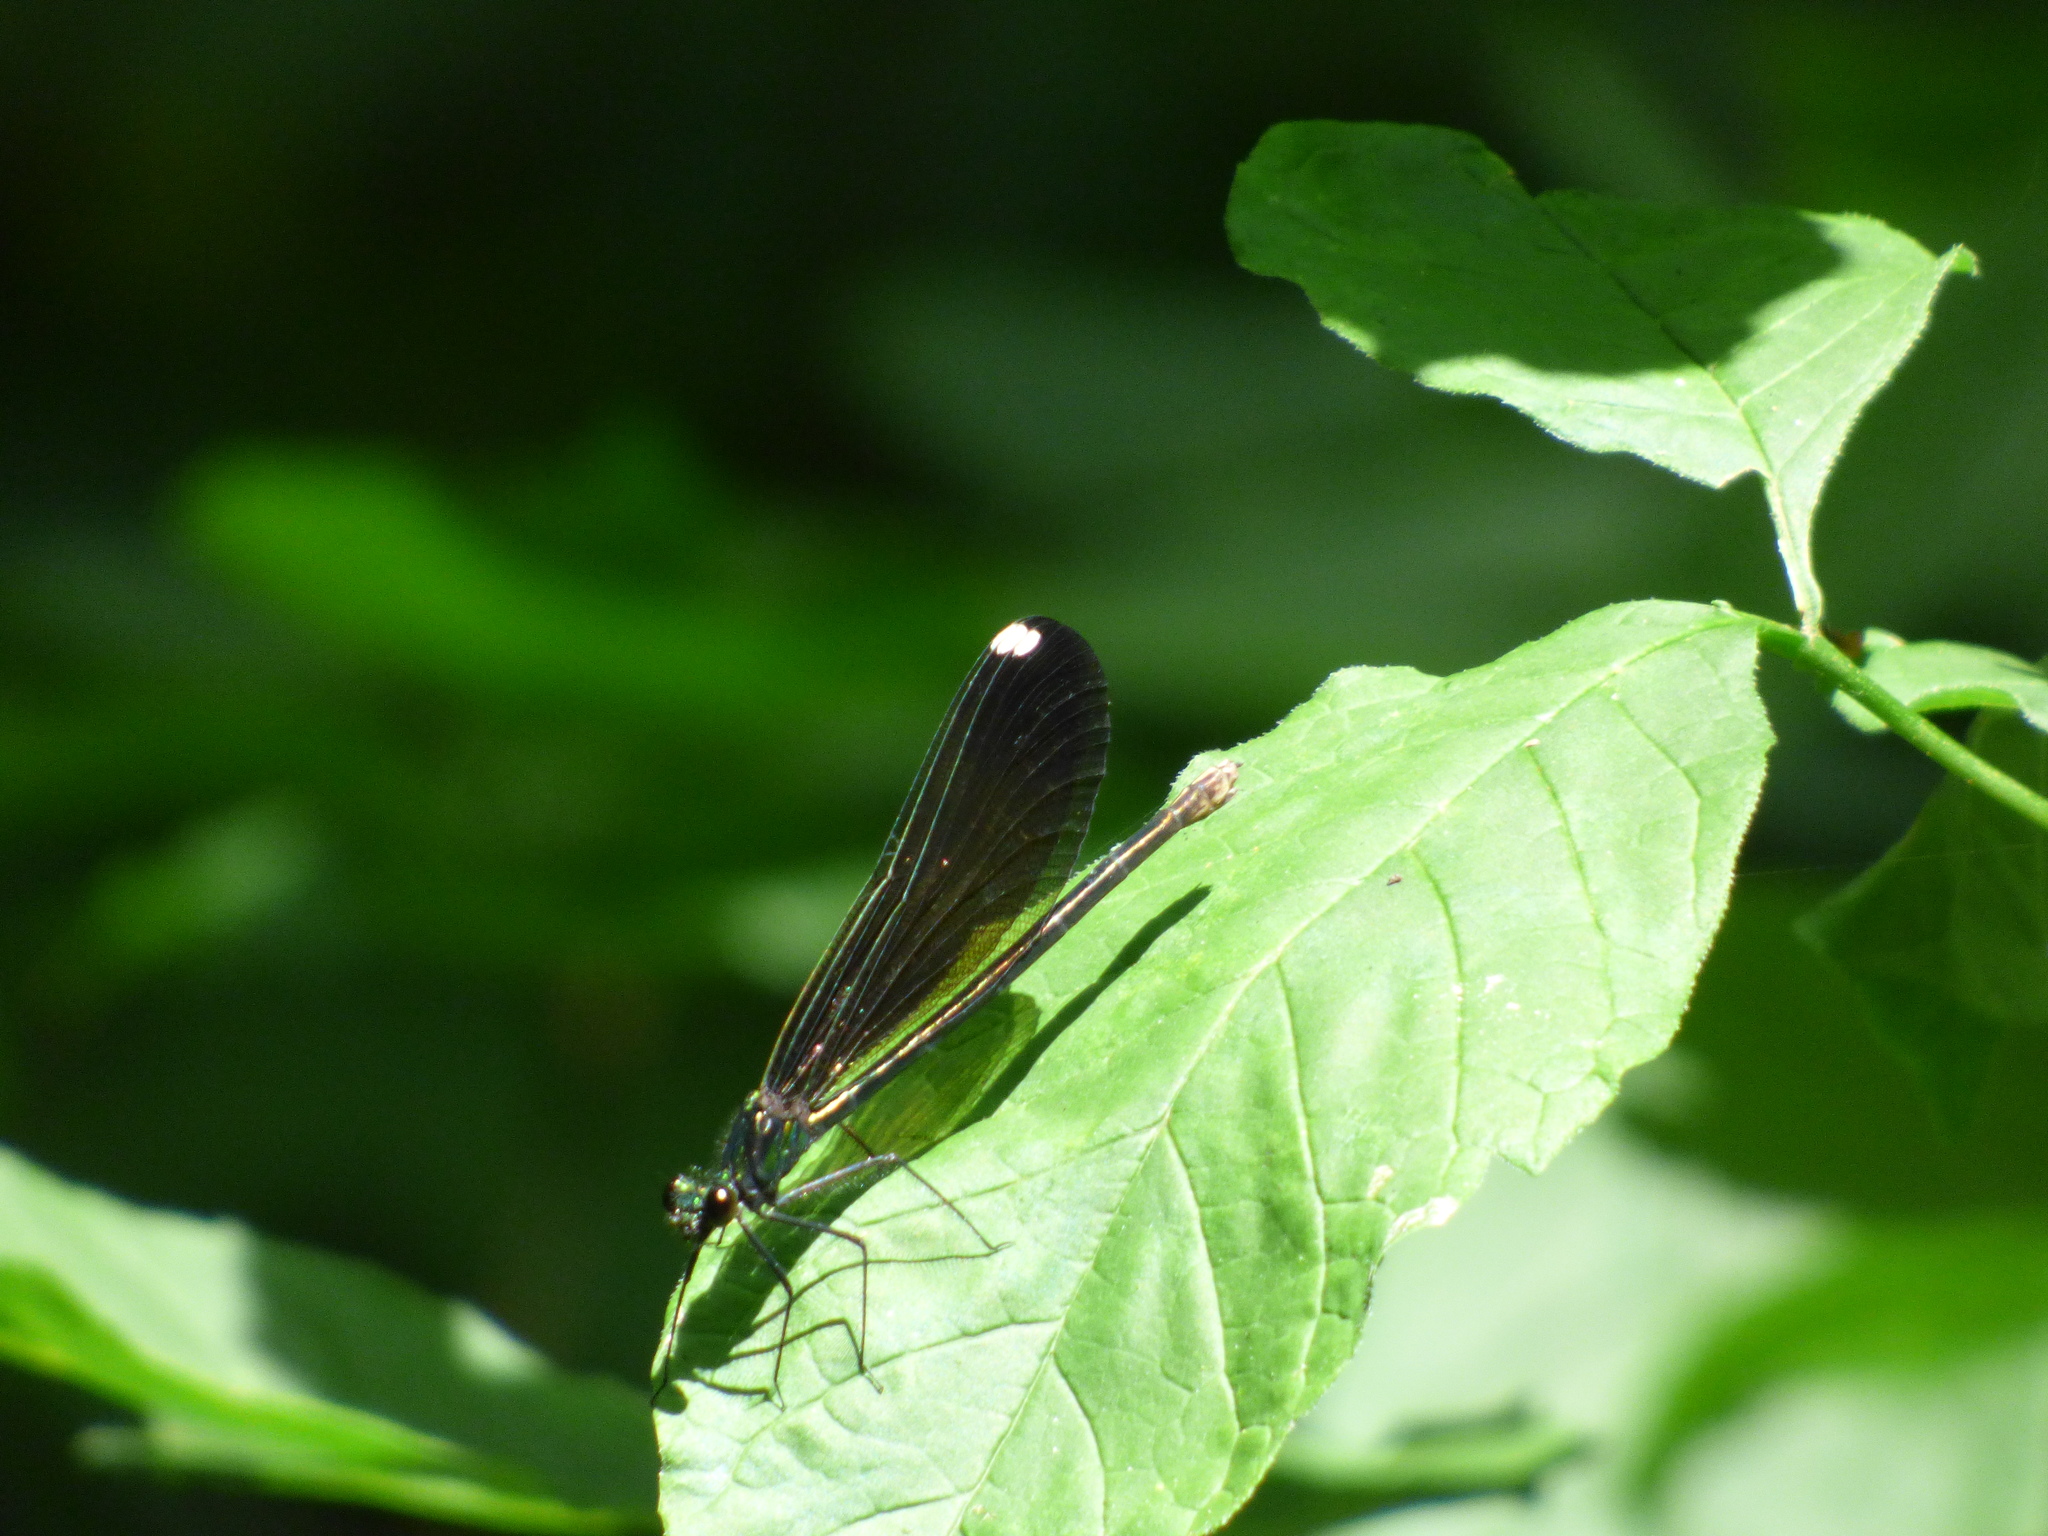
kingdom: Animalia
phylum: Arthropoda
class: Insecta
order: Odonata
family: Calopterygidae
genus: Calopteryx
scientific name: Calopteryx maculata
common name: Ebony jewelwing
